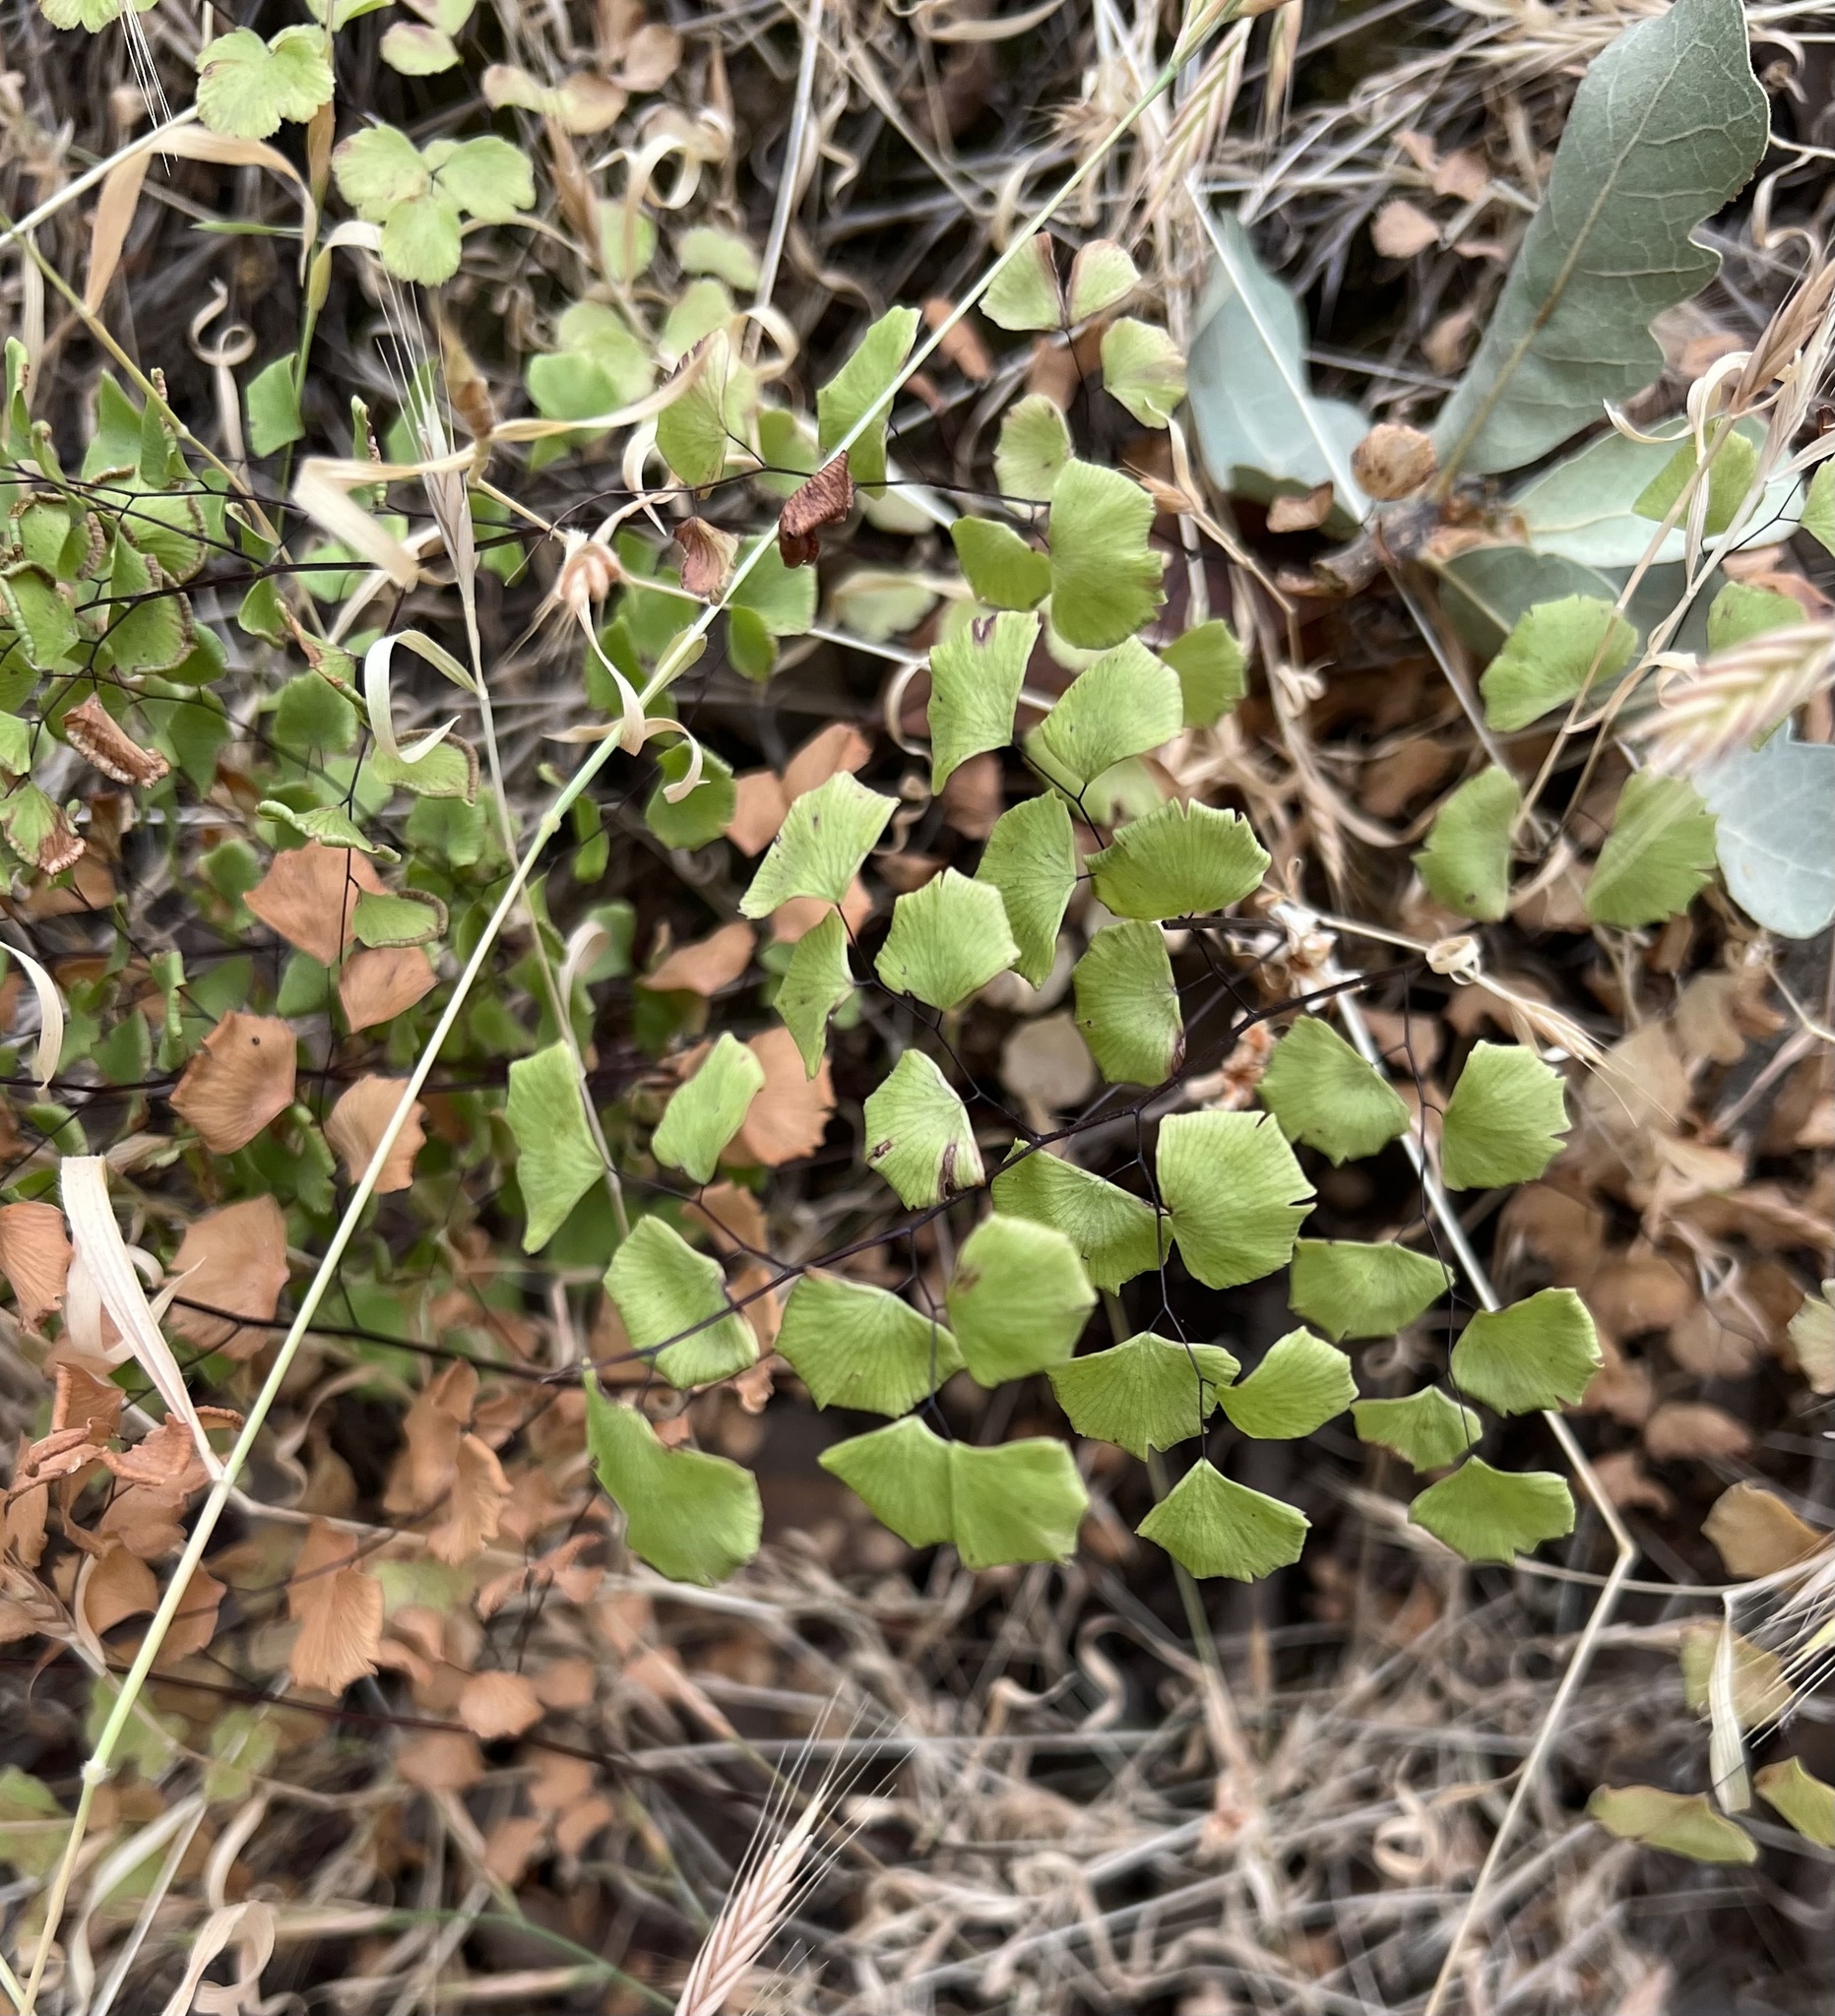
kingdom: Plantae
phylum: Tracheophyta
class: Polypodiopsida
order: Polypodiales
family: Pteridaceae
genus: Adiantum
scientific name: Adiantum jordanii
